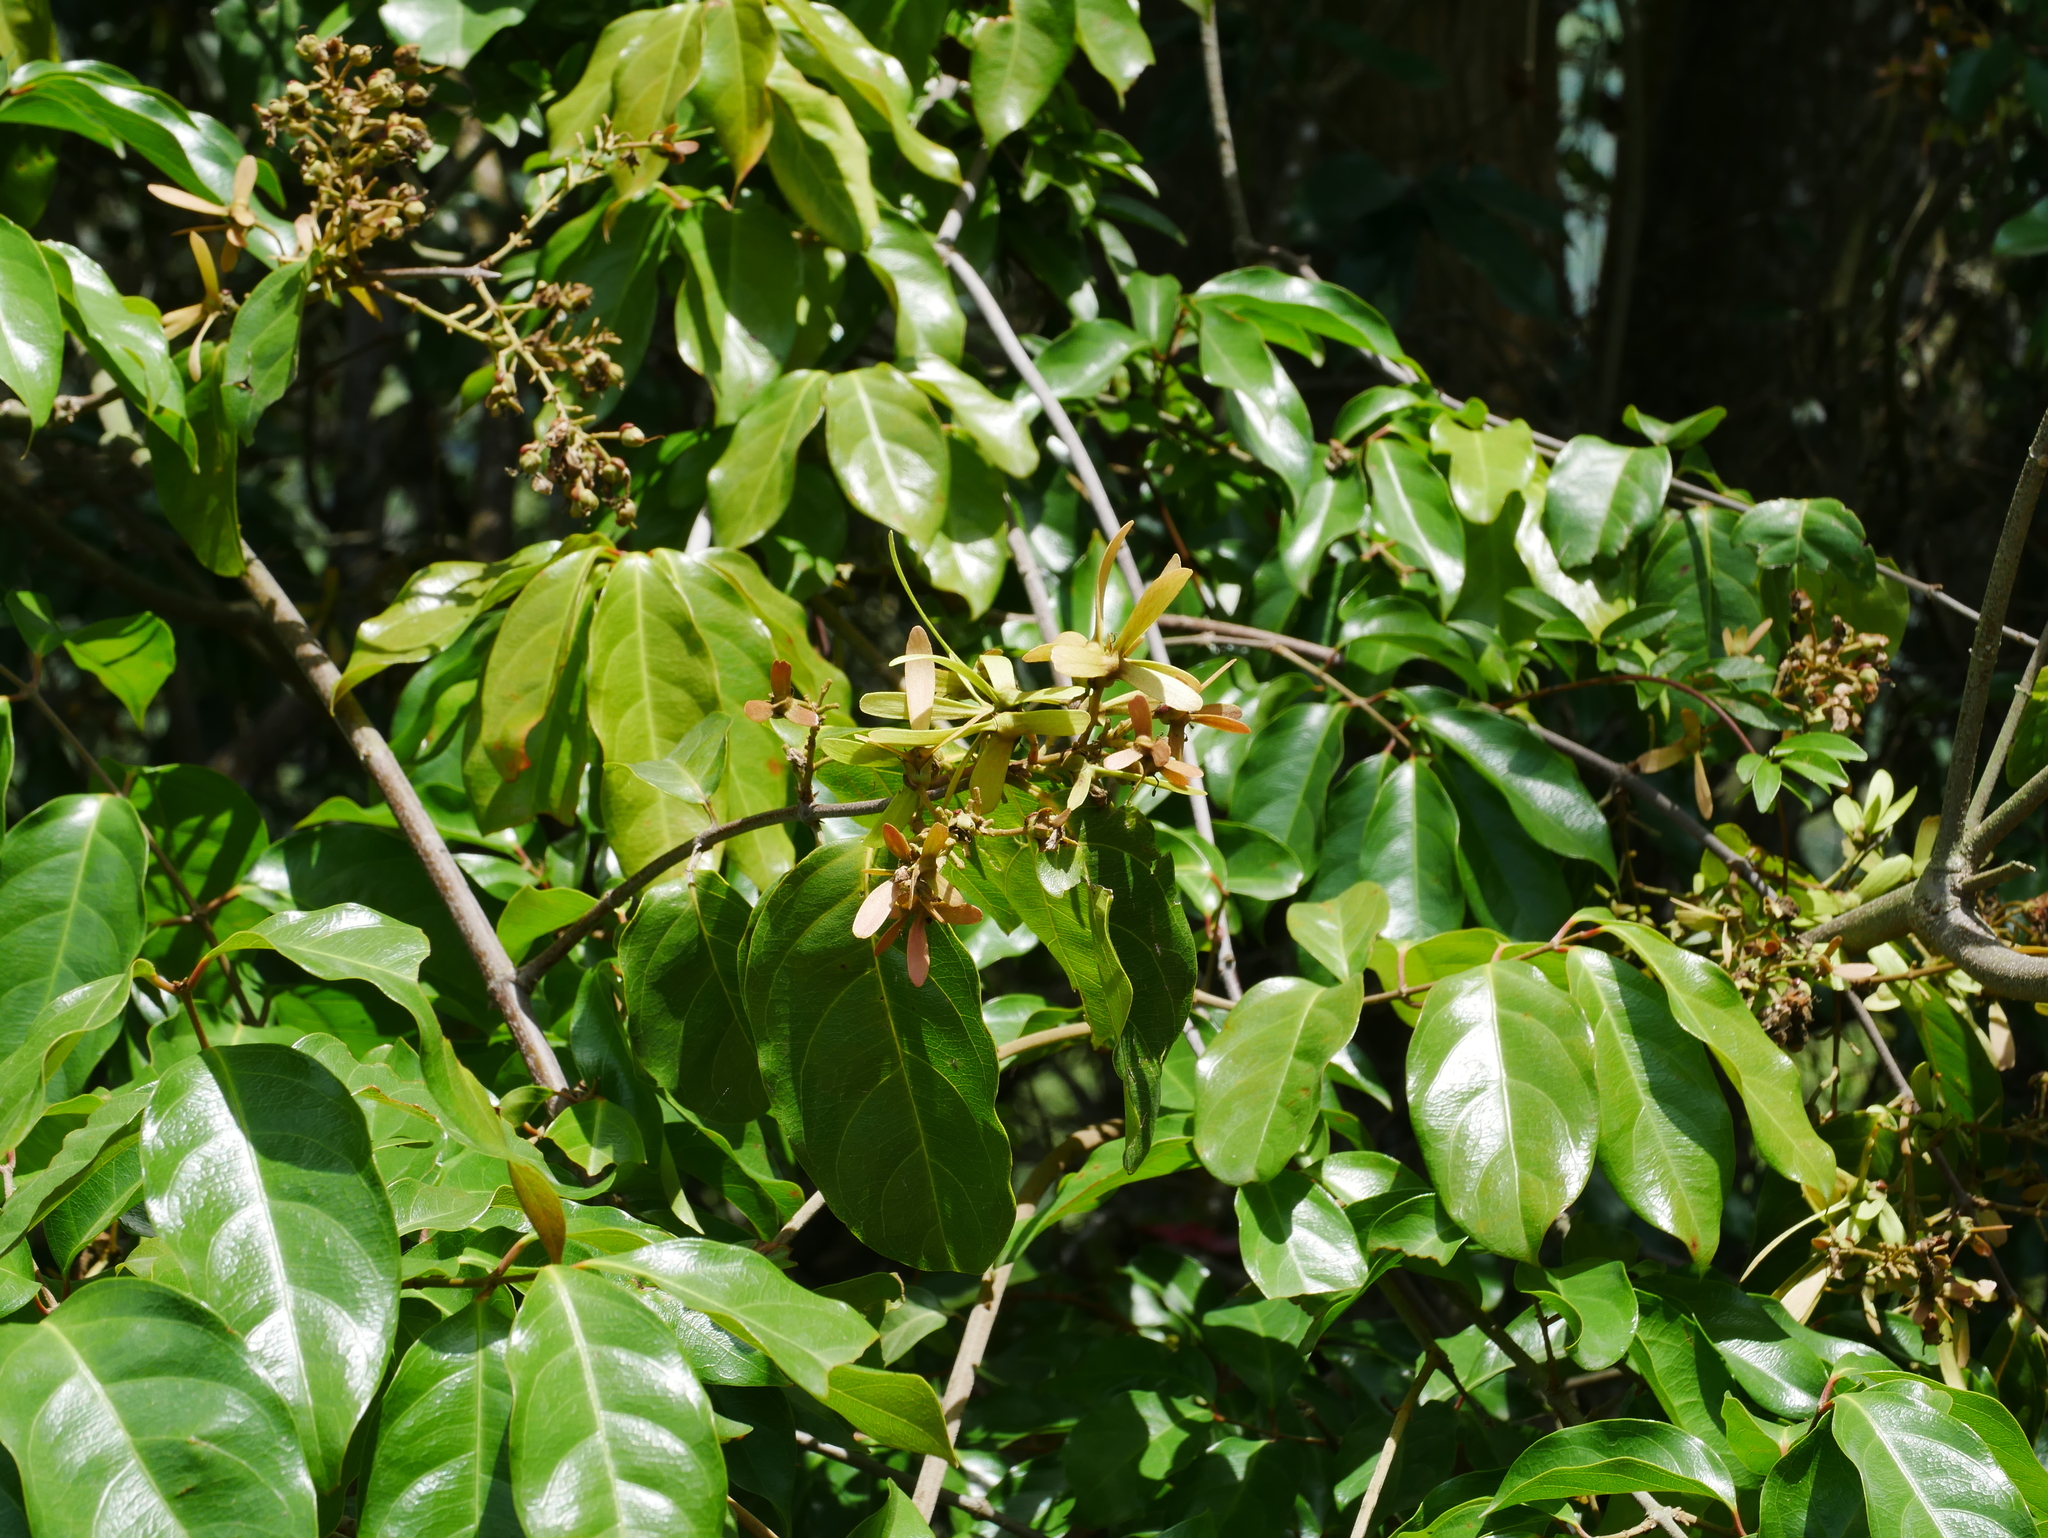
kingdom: Plantae
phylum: Tracheophyta
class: Magnoliopsida
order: Malpighiales
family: Malpighiaceae
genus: Hiptage
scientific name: Hiptage benghalensis
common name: Hiptage
